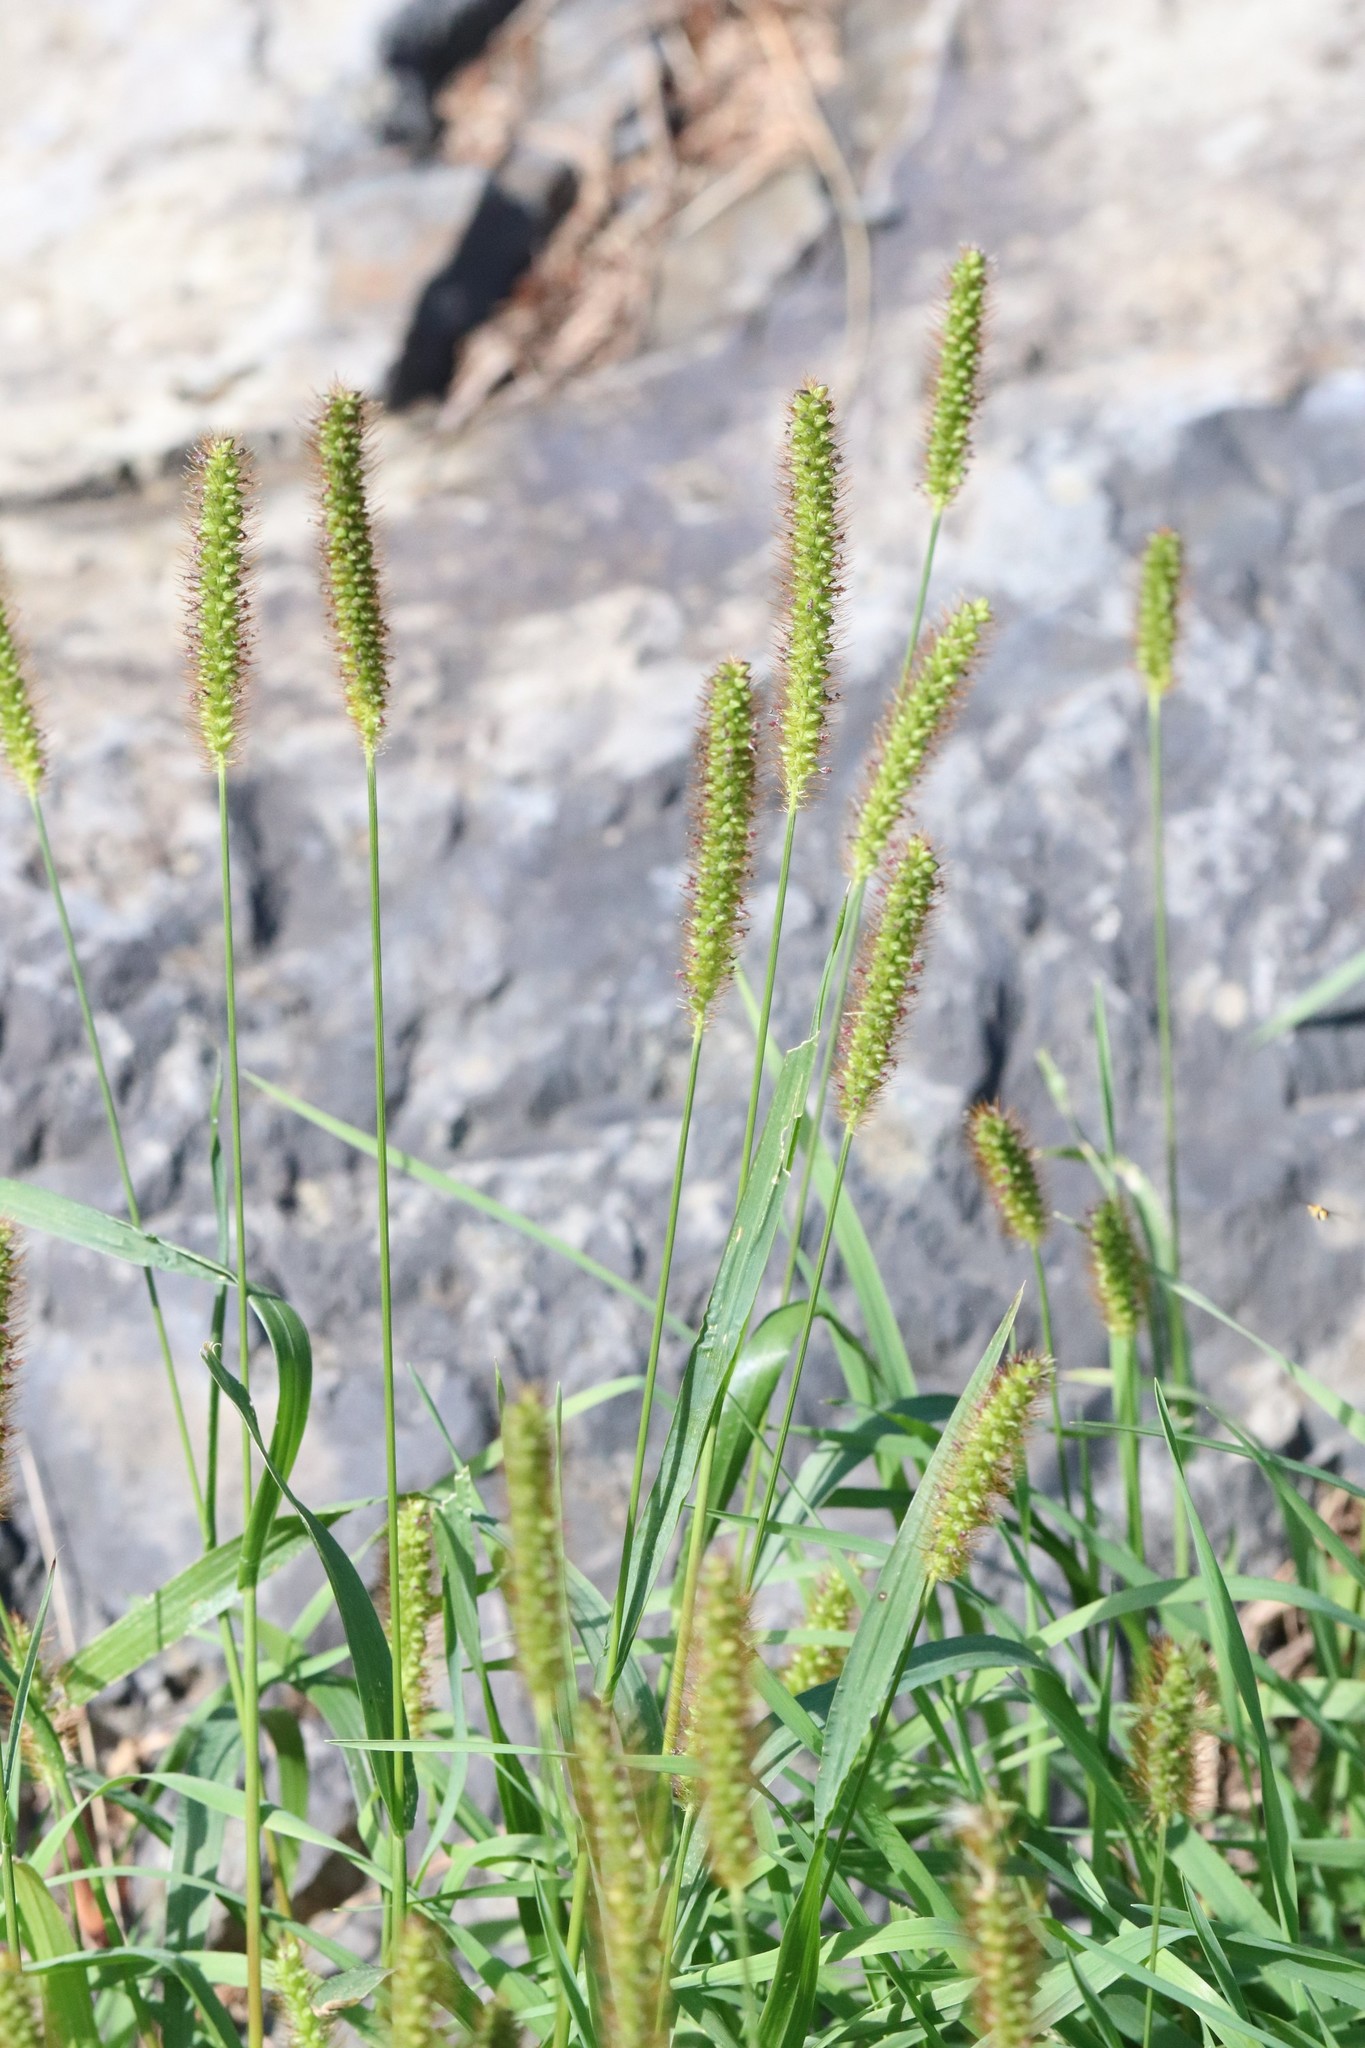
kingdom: Plantae
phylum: Tracheophyta
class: Liliopsida
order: Poales
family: Poaceae
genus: Setaria
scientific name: Setaria pumila
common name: Yellow bristle-grass
